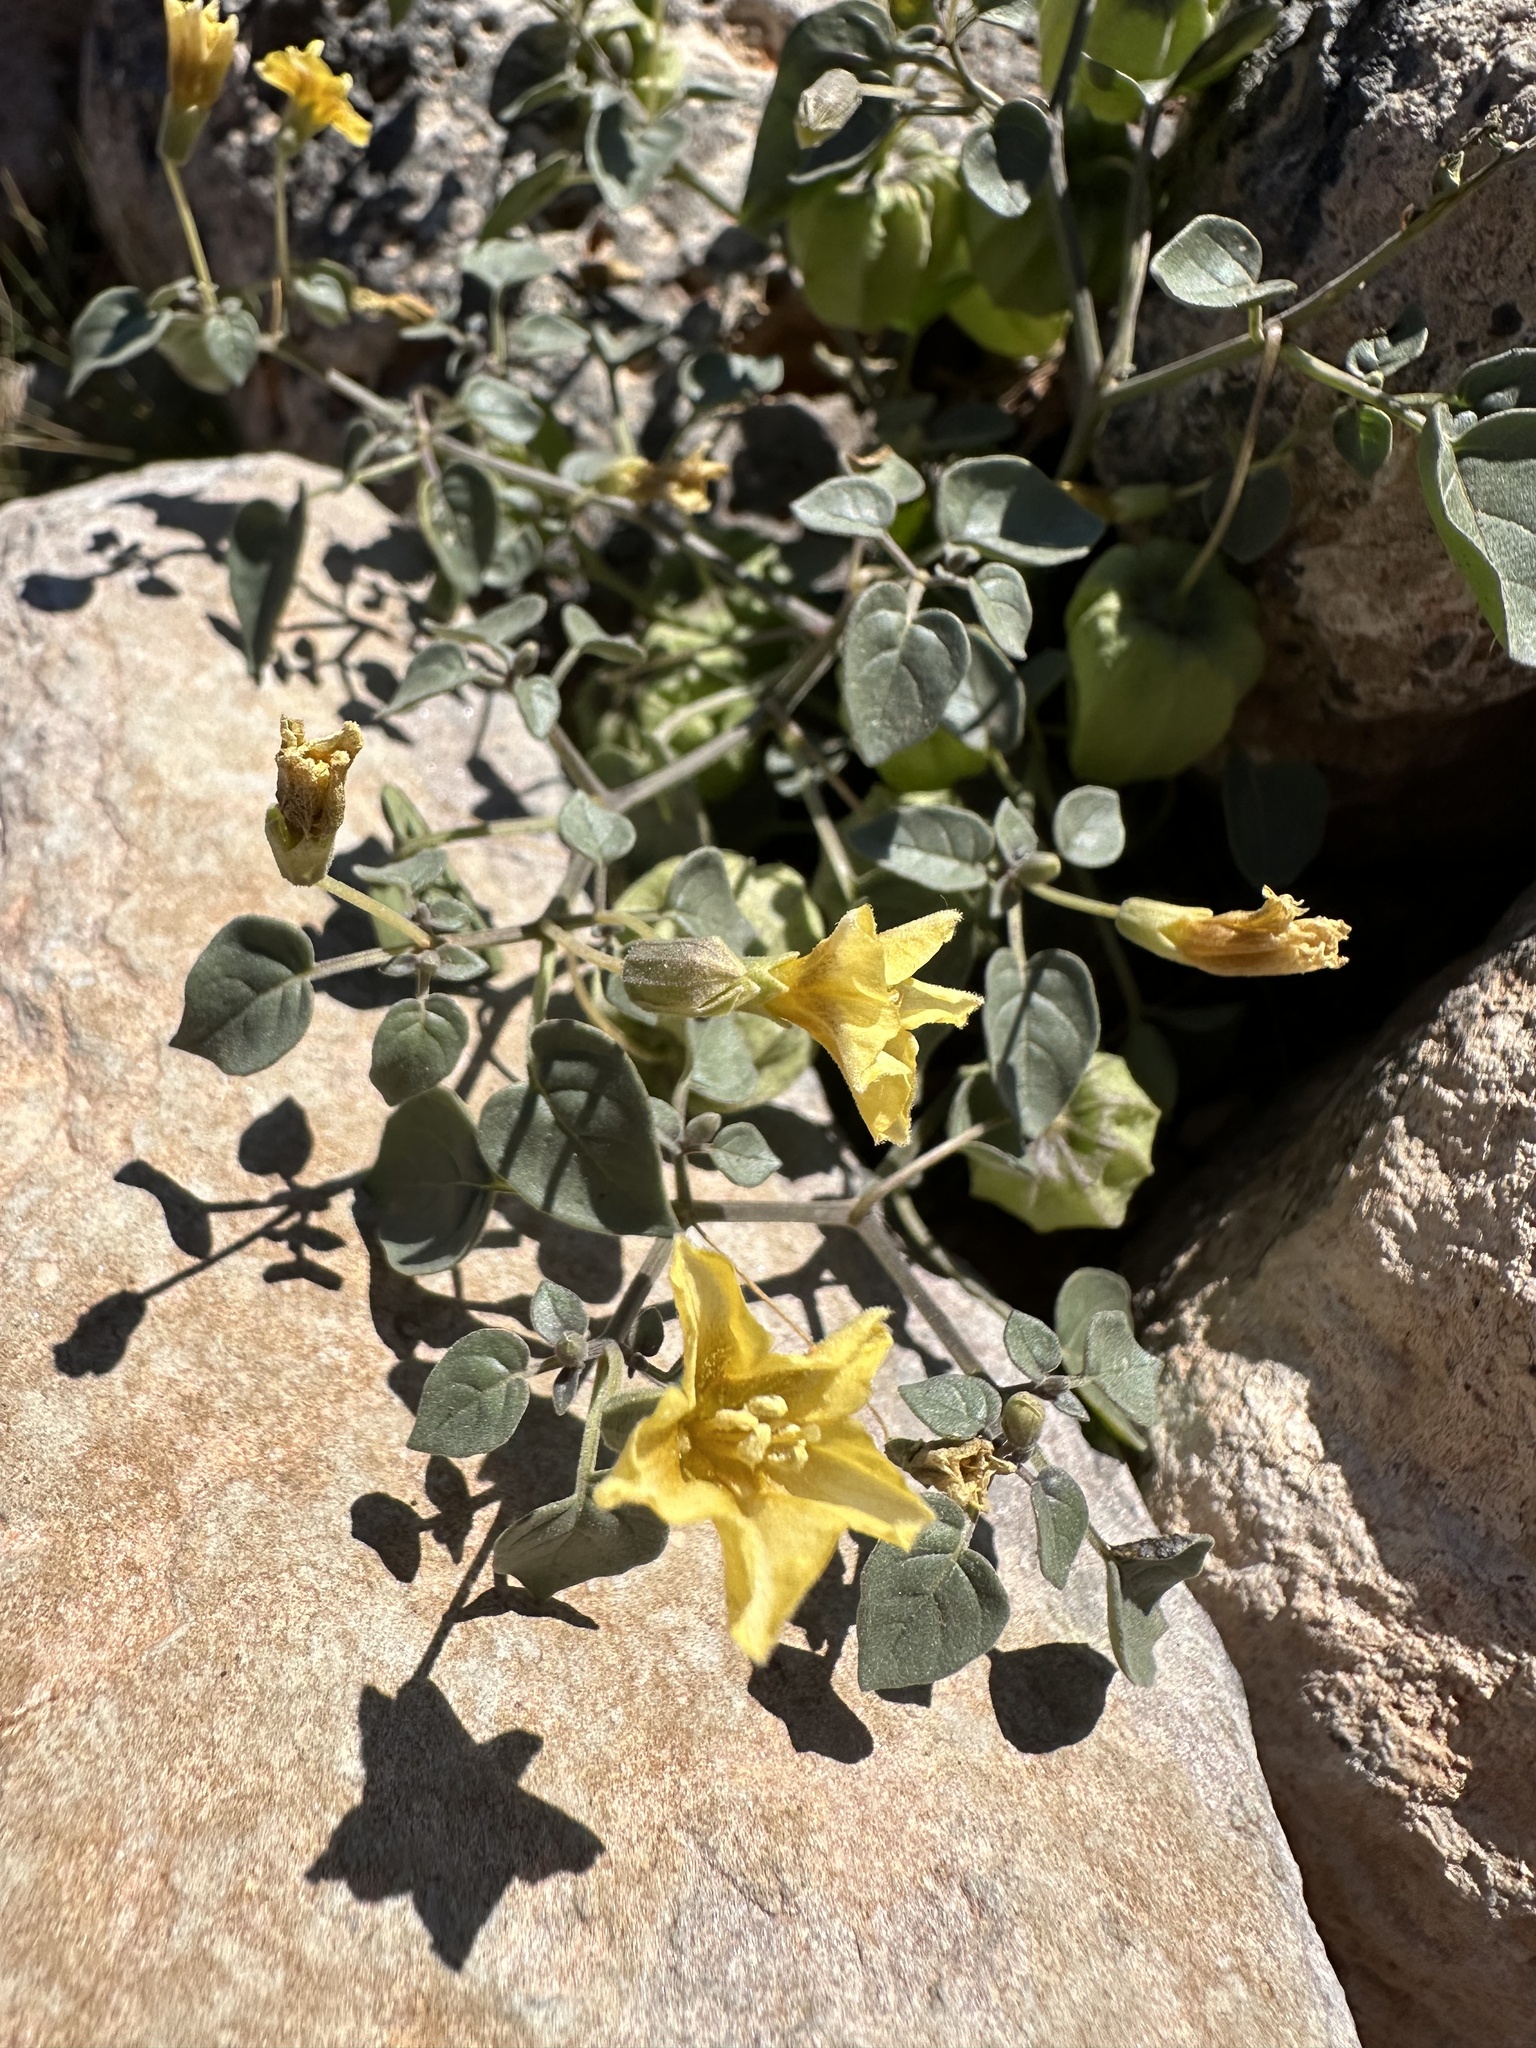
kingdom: Plantae
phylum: Tracheophyta
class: Magnoliopsida
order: Solanales
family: Solanaceae
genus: Physalis
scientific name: Physalis crassifolia
